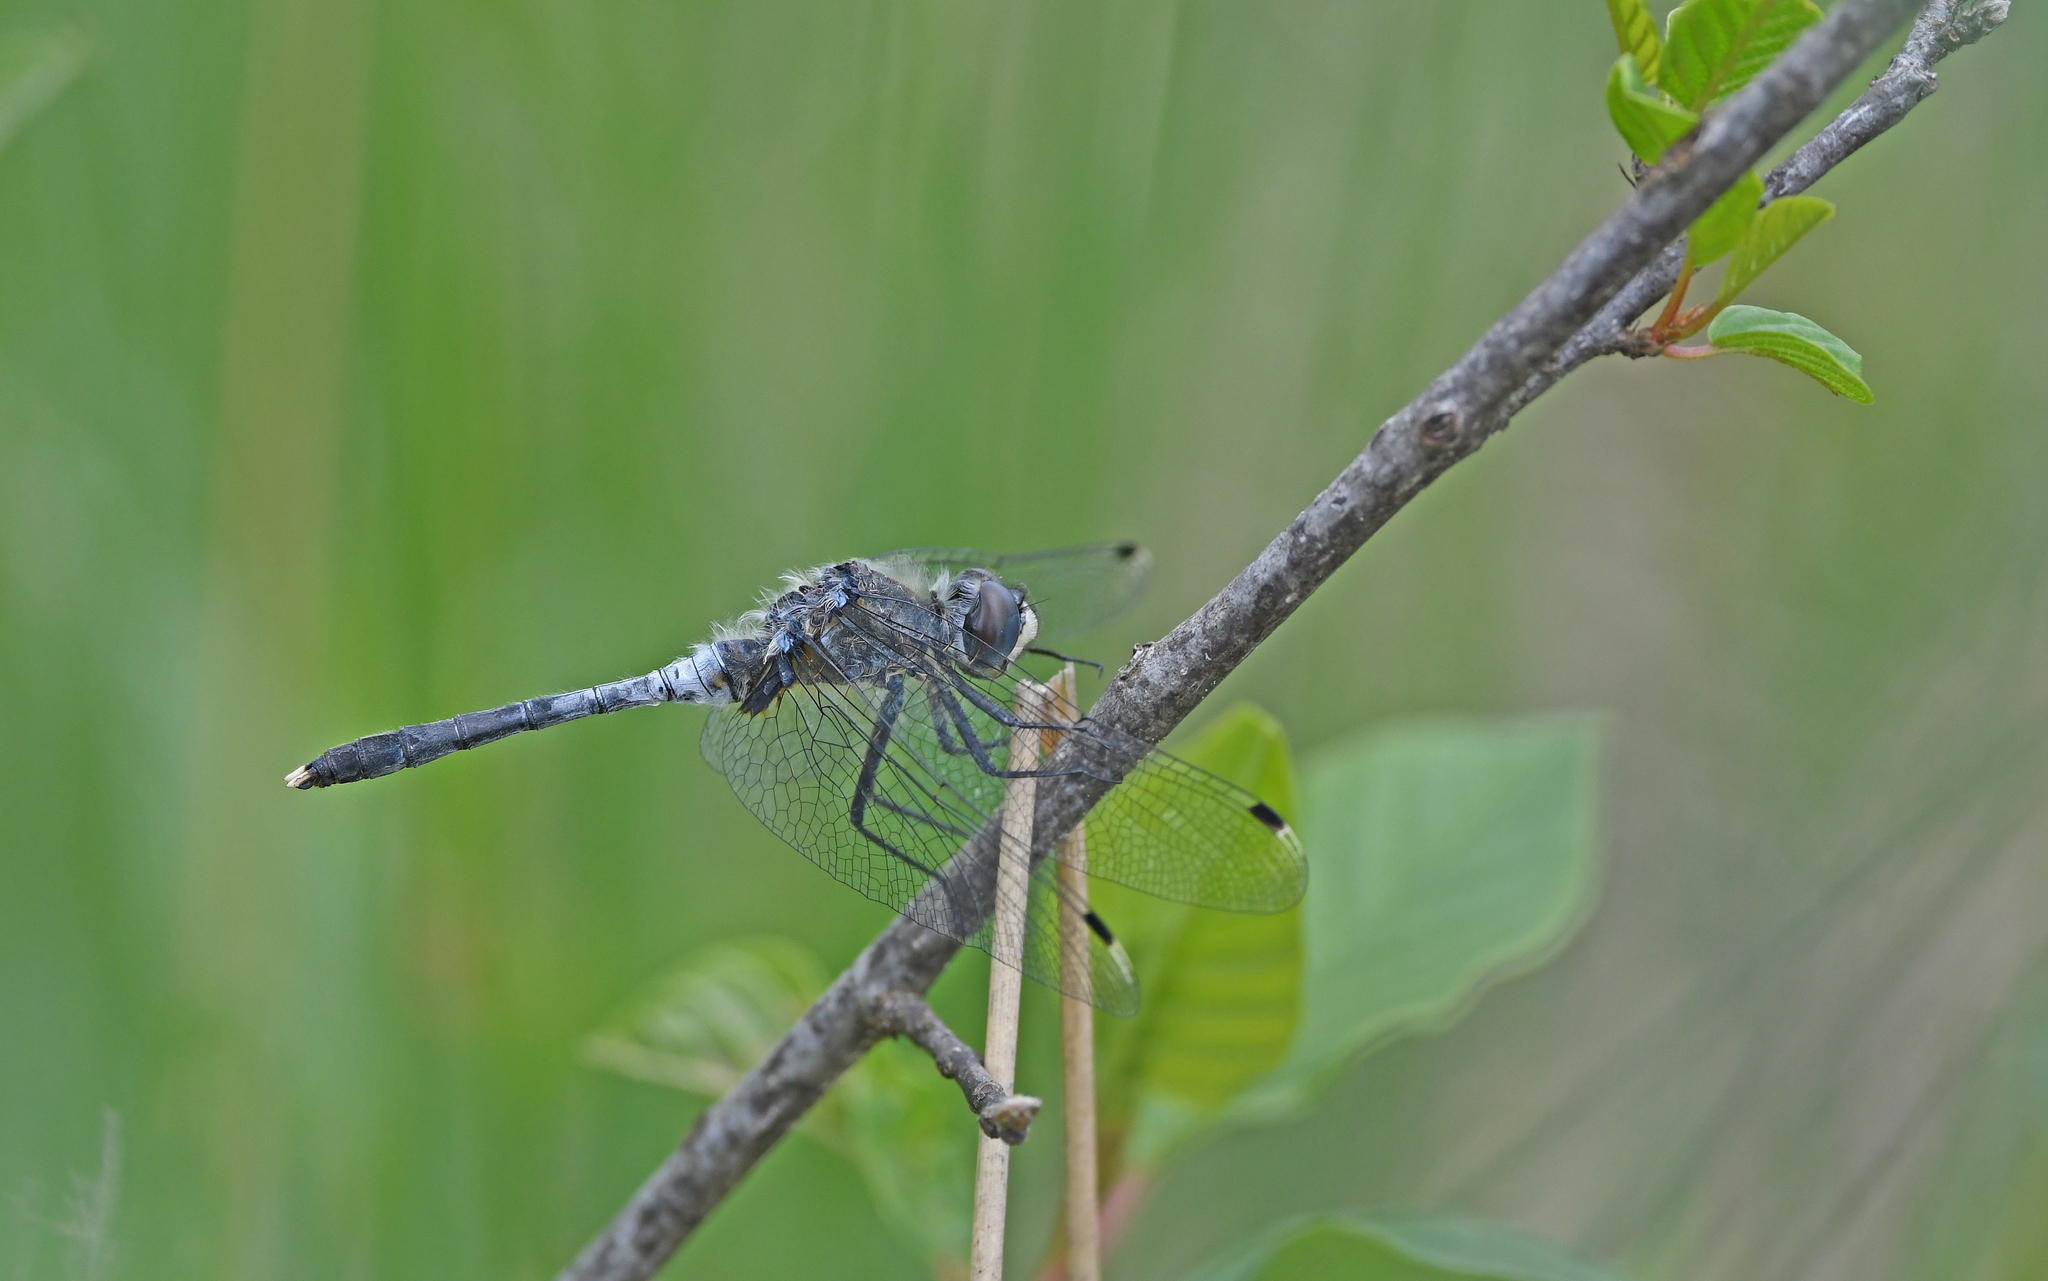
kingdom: Animalia
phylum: Arthropoda
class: Insecta
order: Odonata
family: Libellulidae
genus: Leucorrhinia
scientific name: Leucorrhinia albifrons
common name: Dark whiteface
